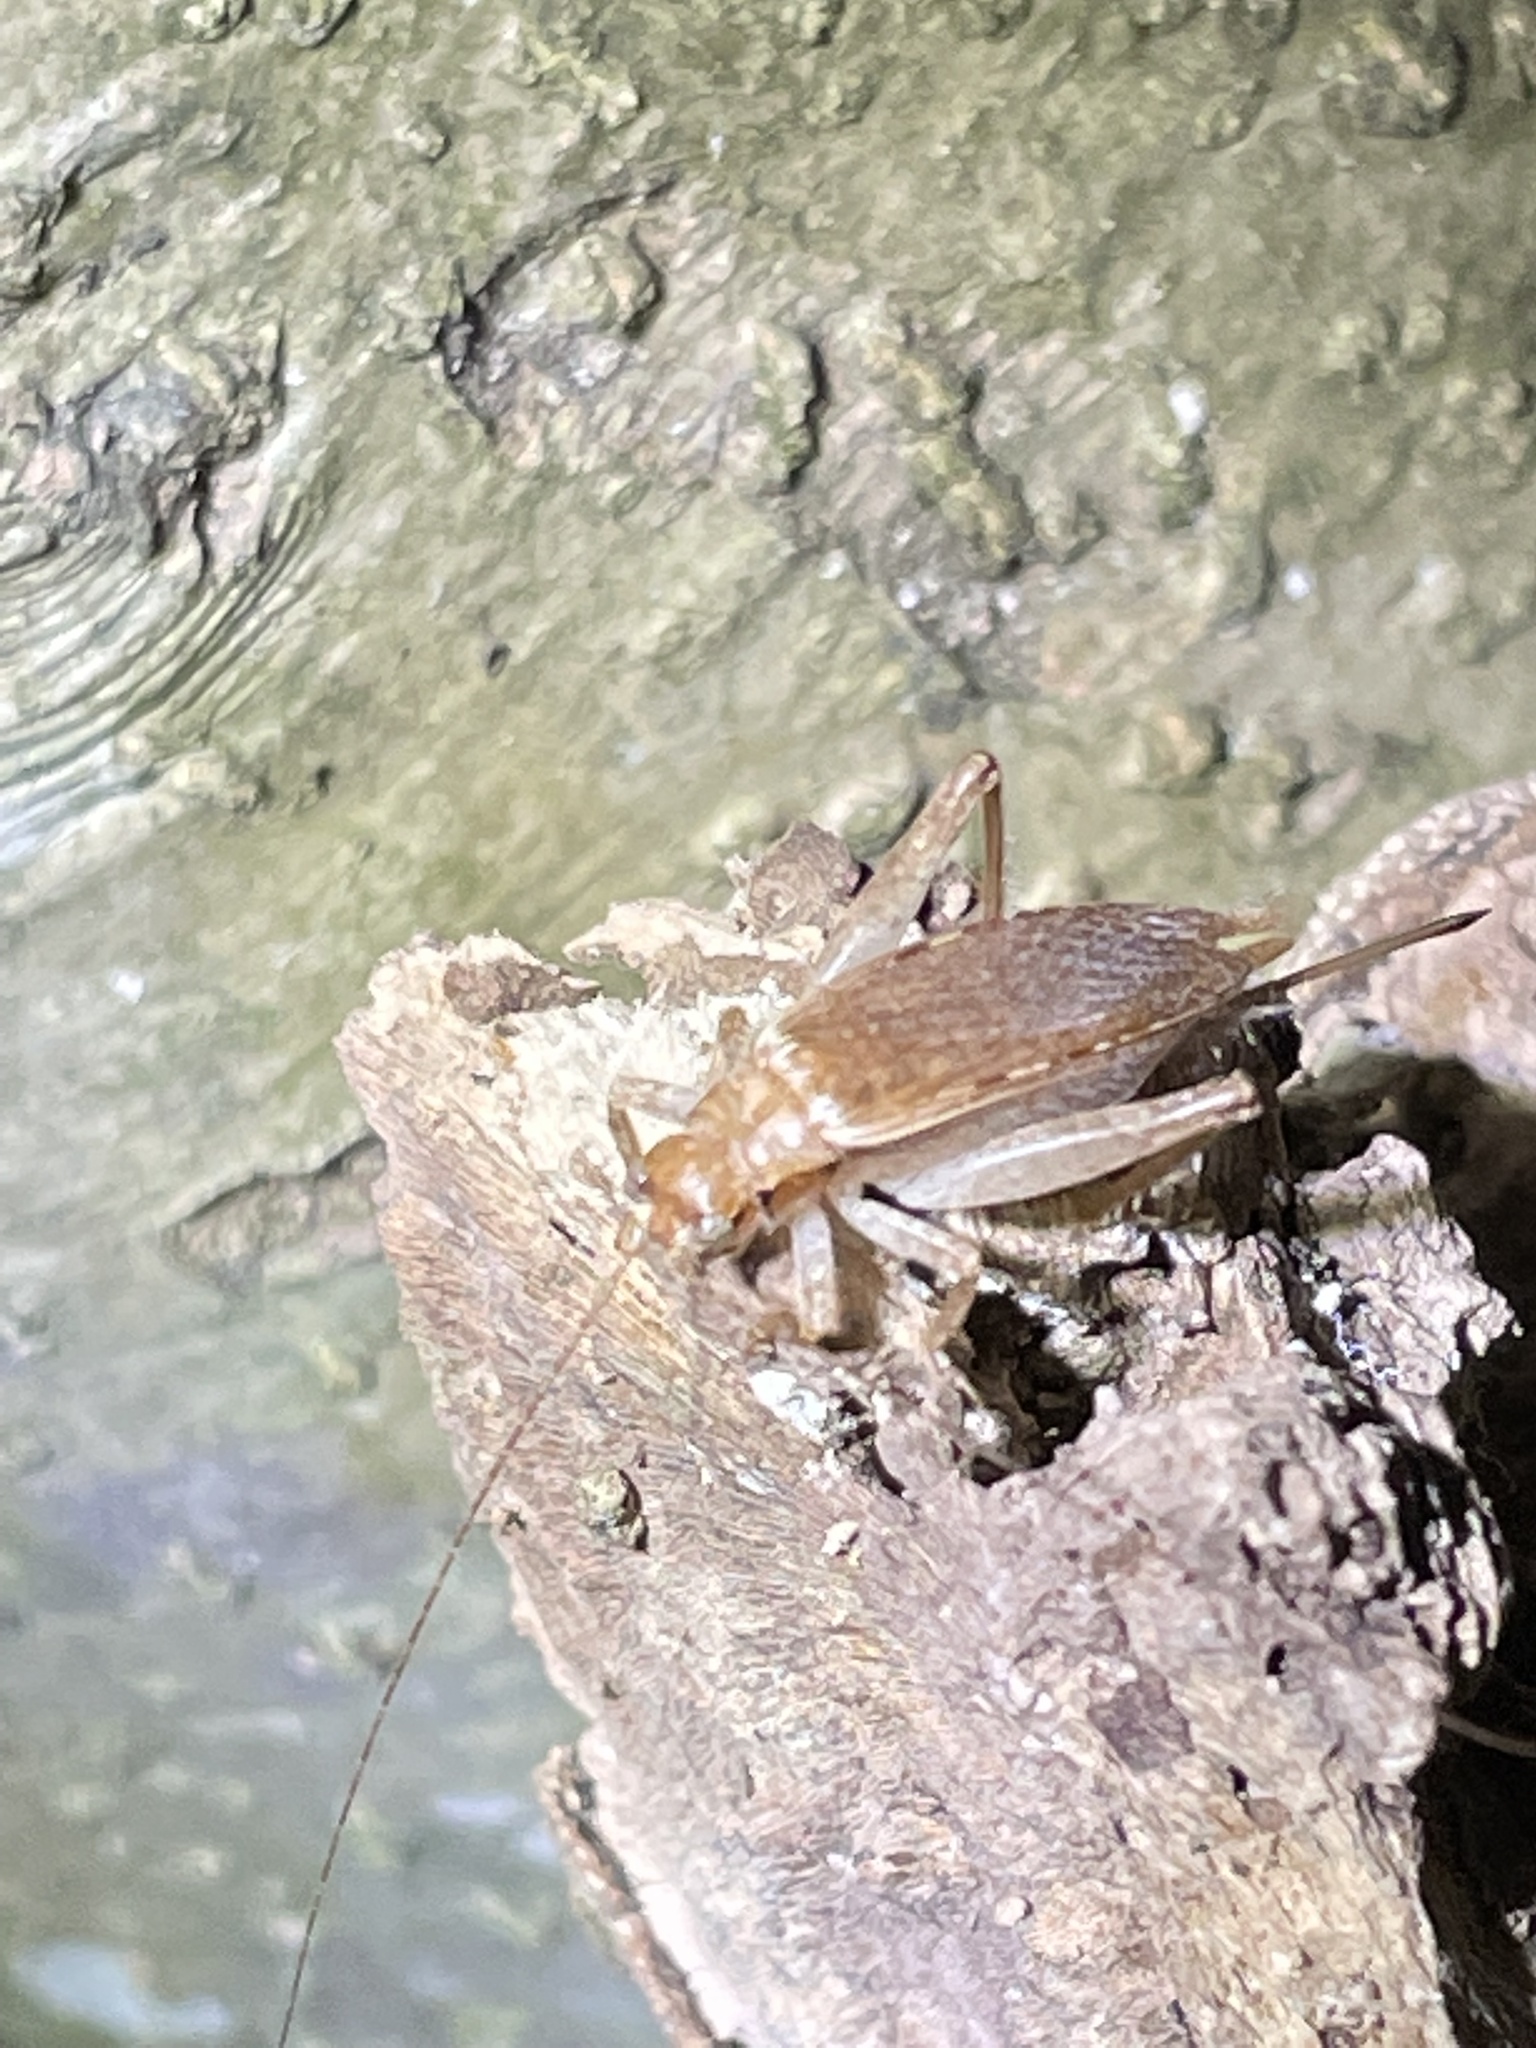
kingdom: Animalia
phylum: Arthropoda
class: Insecta
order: Orthoptera
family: Gryllidae
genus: Hapithus
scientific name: Hapithus saltator
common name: Jumping bush cricket
